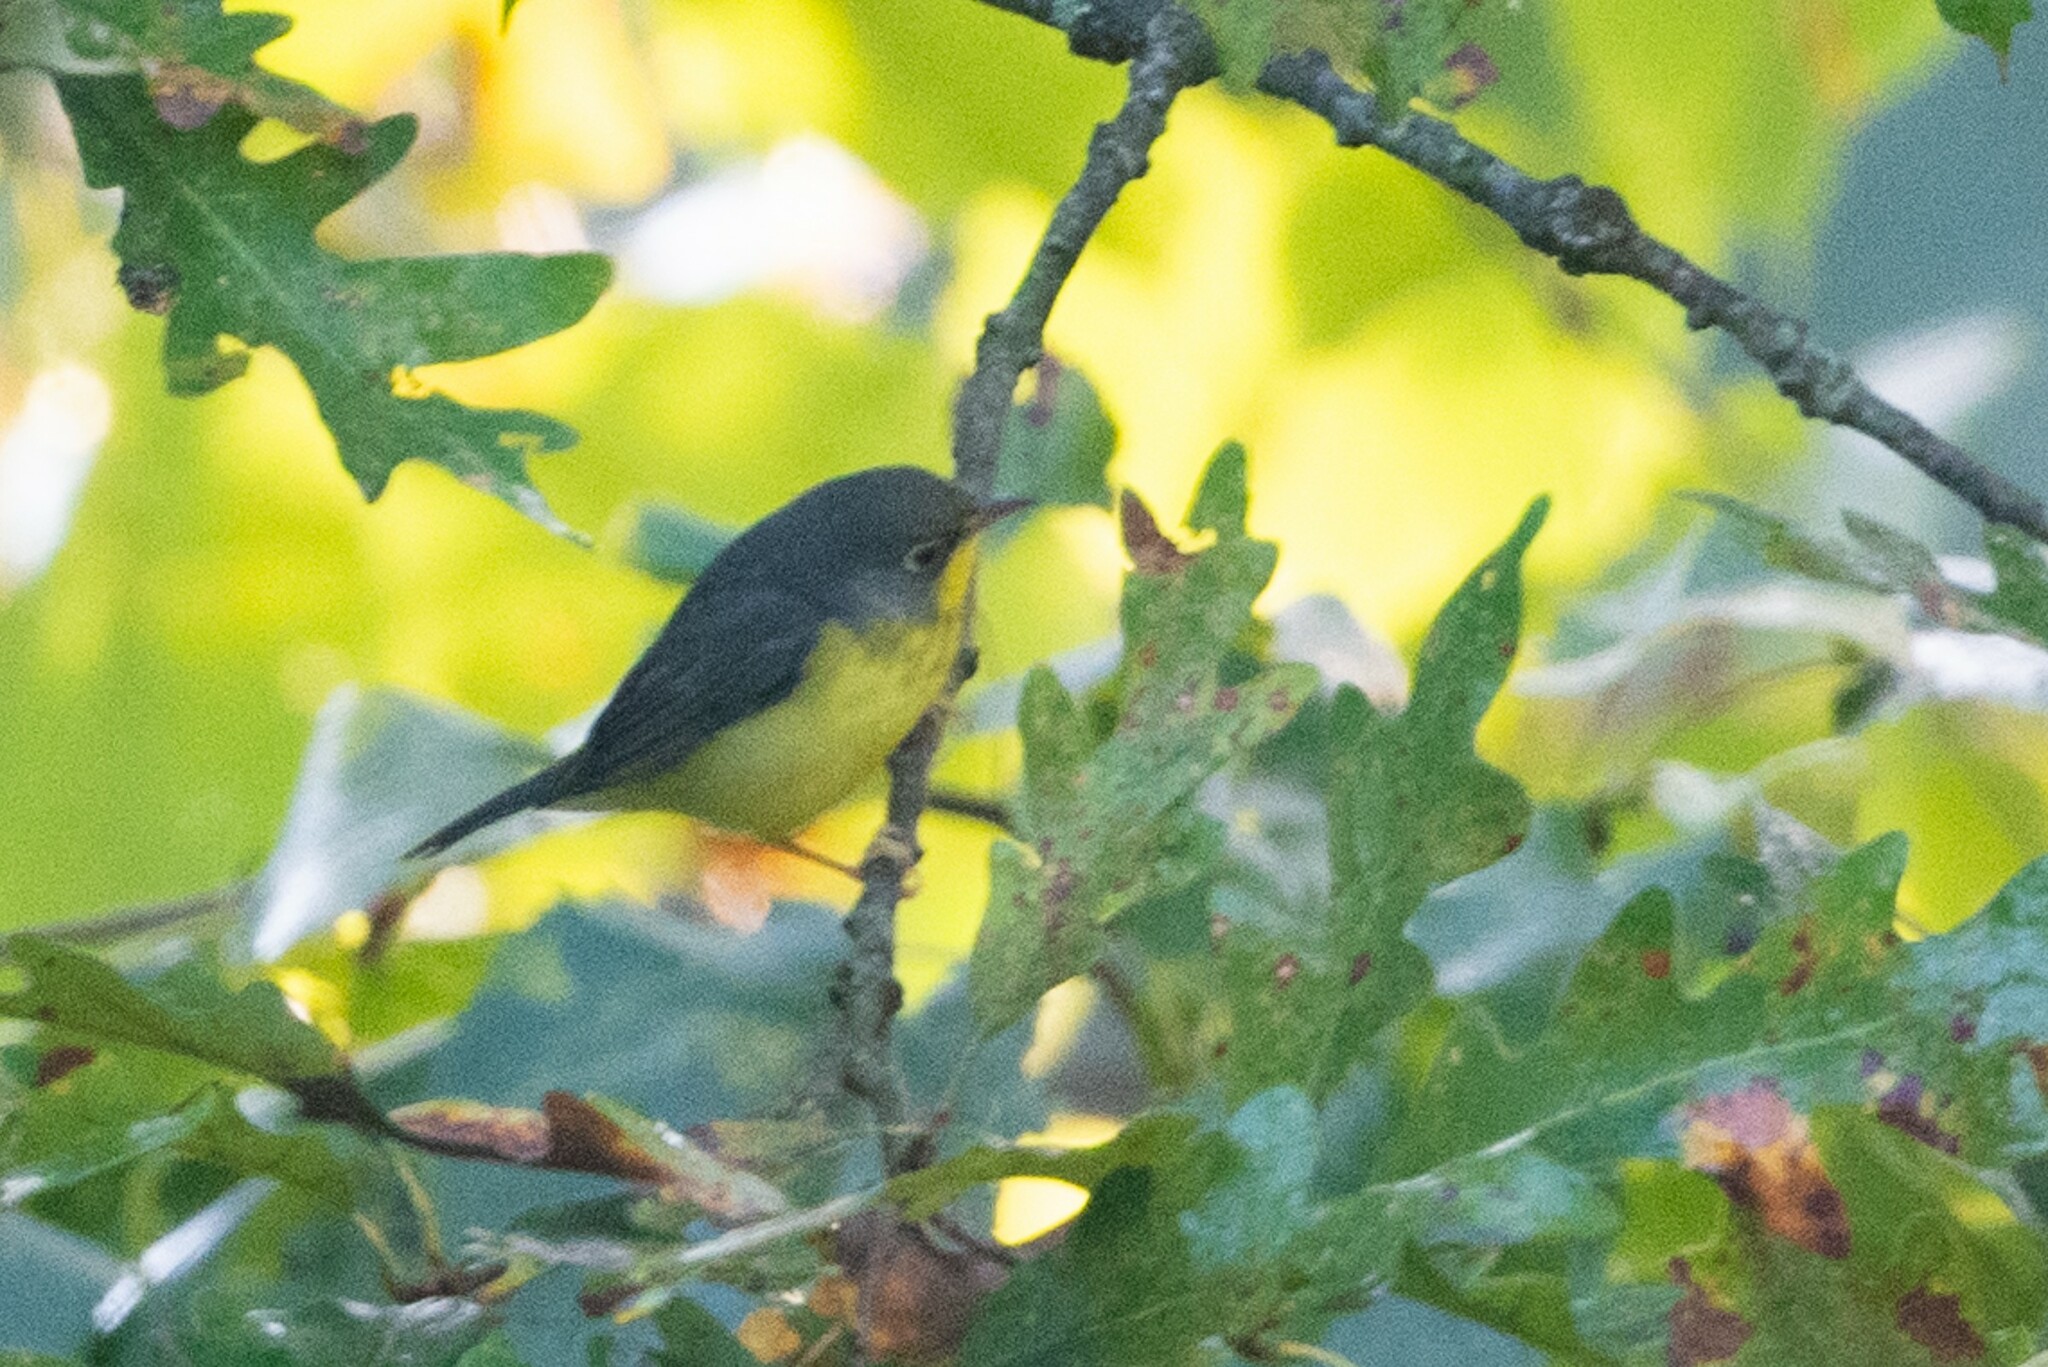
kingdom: Animalia
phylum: Chordata
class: Aves
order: Passeriformes
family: Parulidae
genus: Cardellina
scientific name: Cardellina canadensis
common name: Canada warbler
